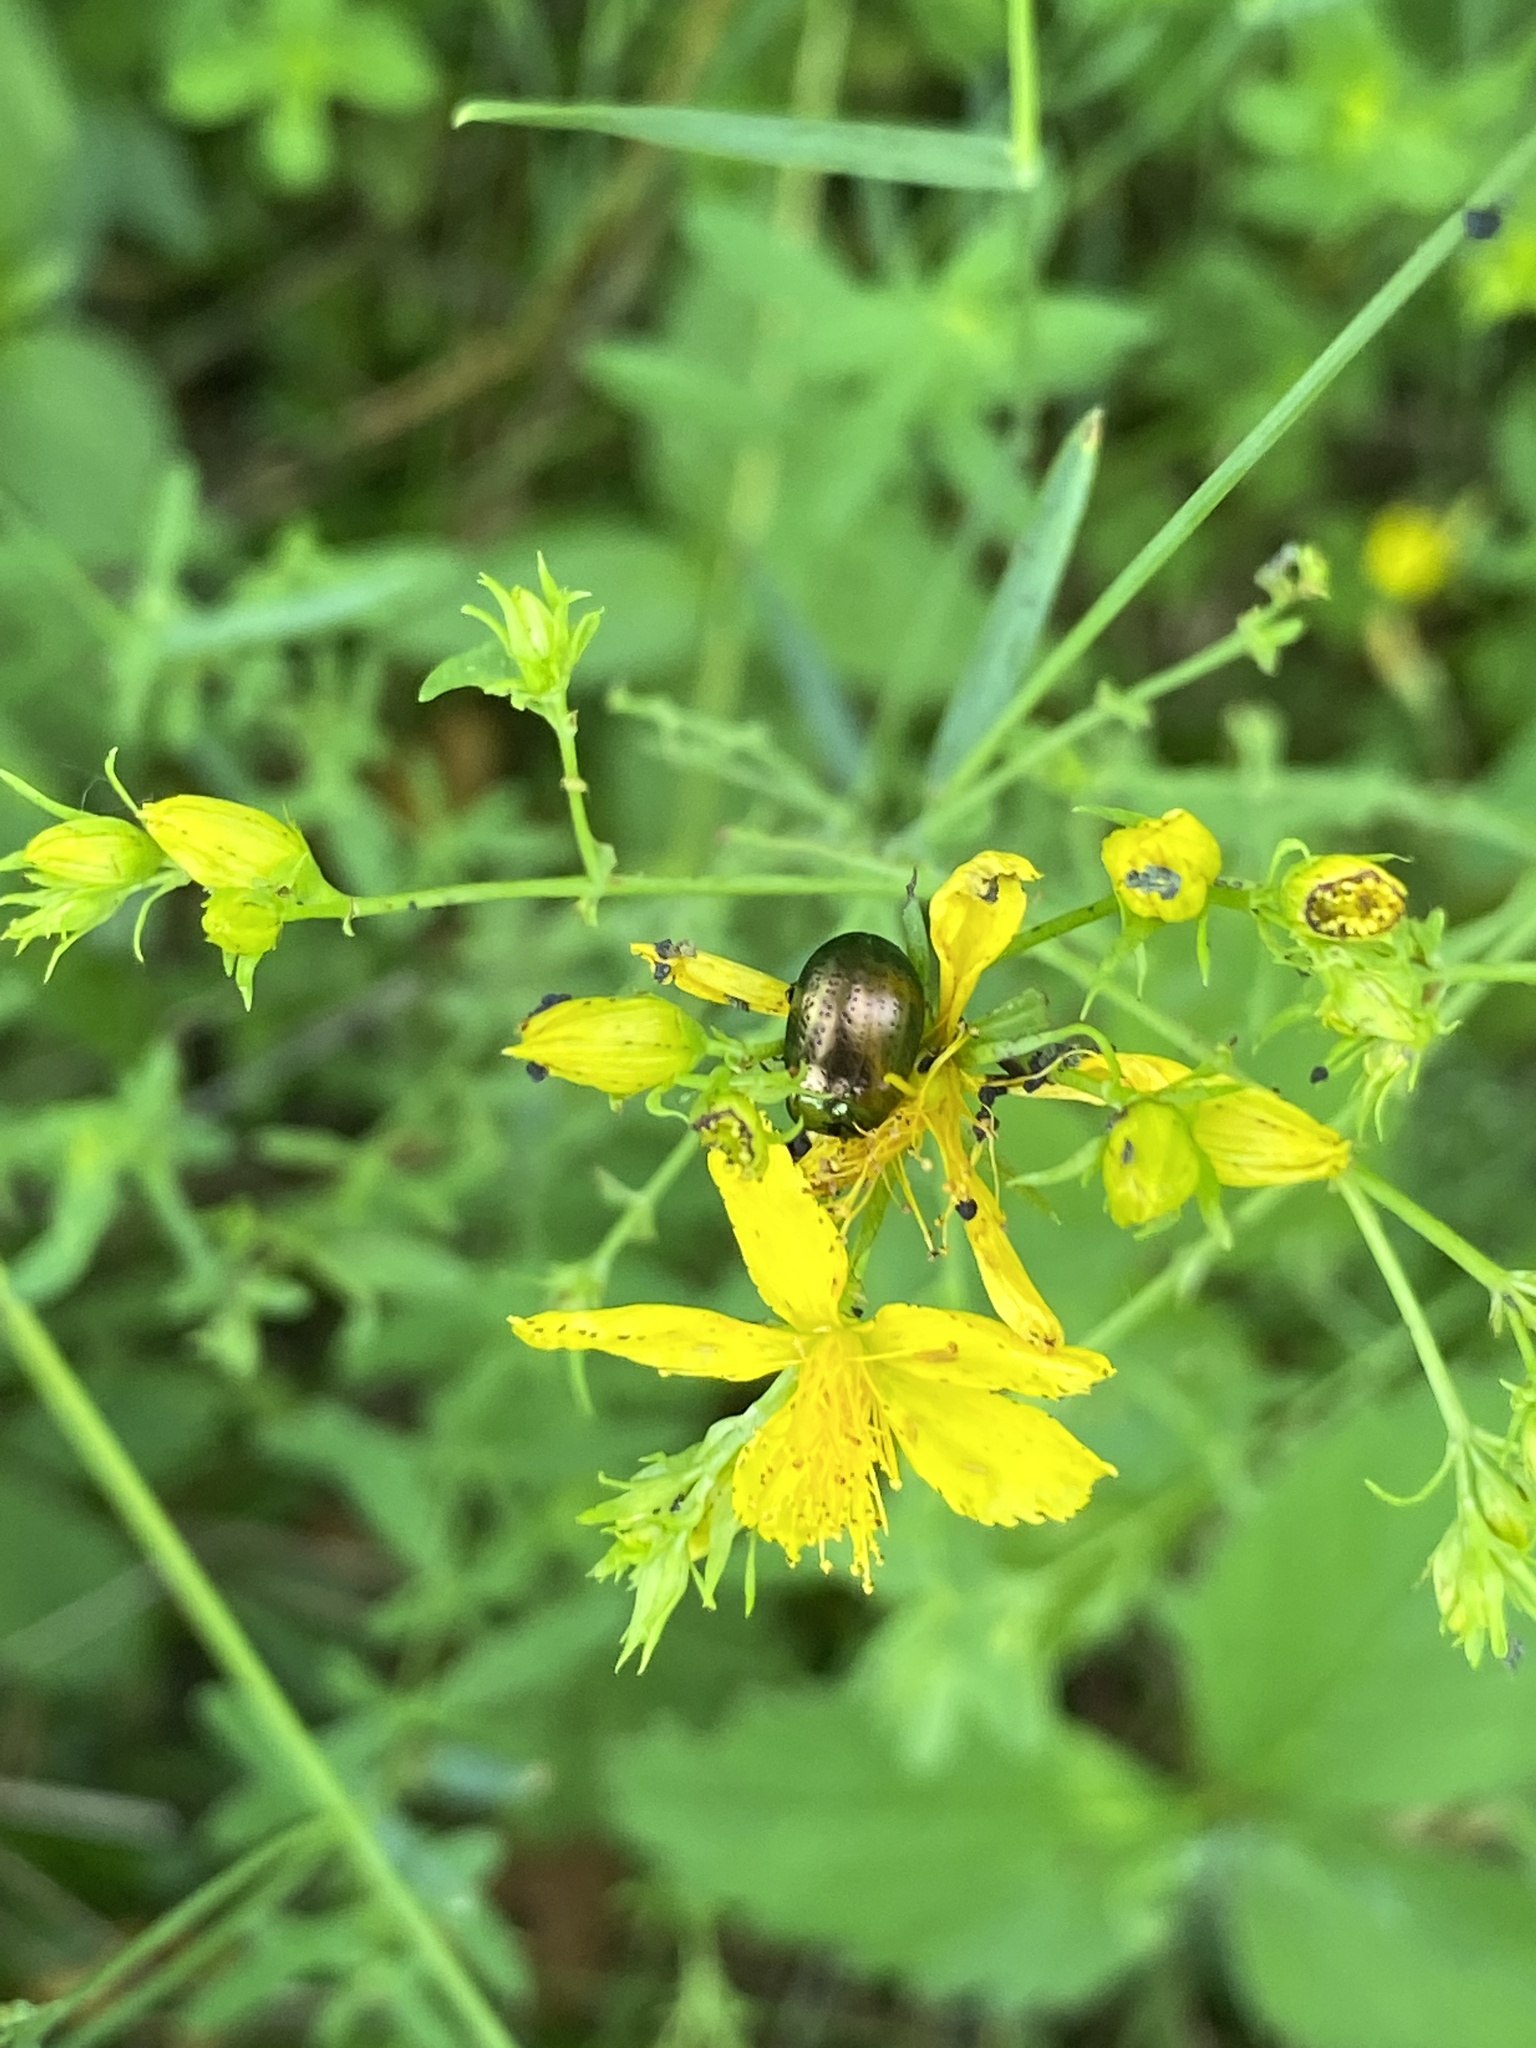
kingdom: Animalia
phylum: Arthropoda
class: Insecta
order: Coleoptera
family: Chrysomelidae
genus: Chrysolina
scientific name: Chrysolina hyperici
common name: St. johnswort beetle
